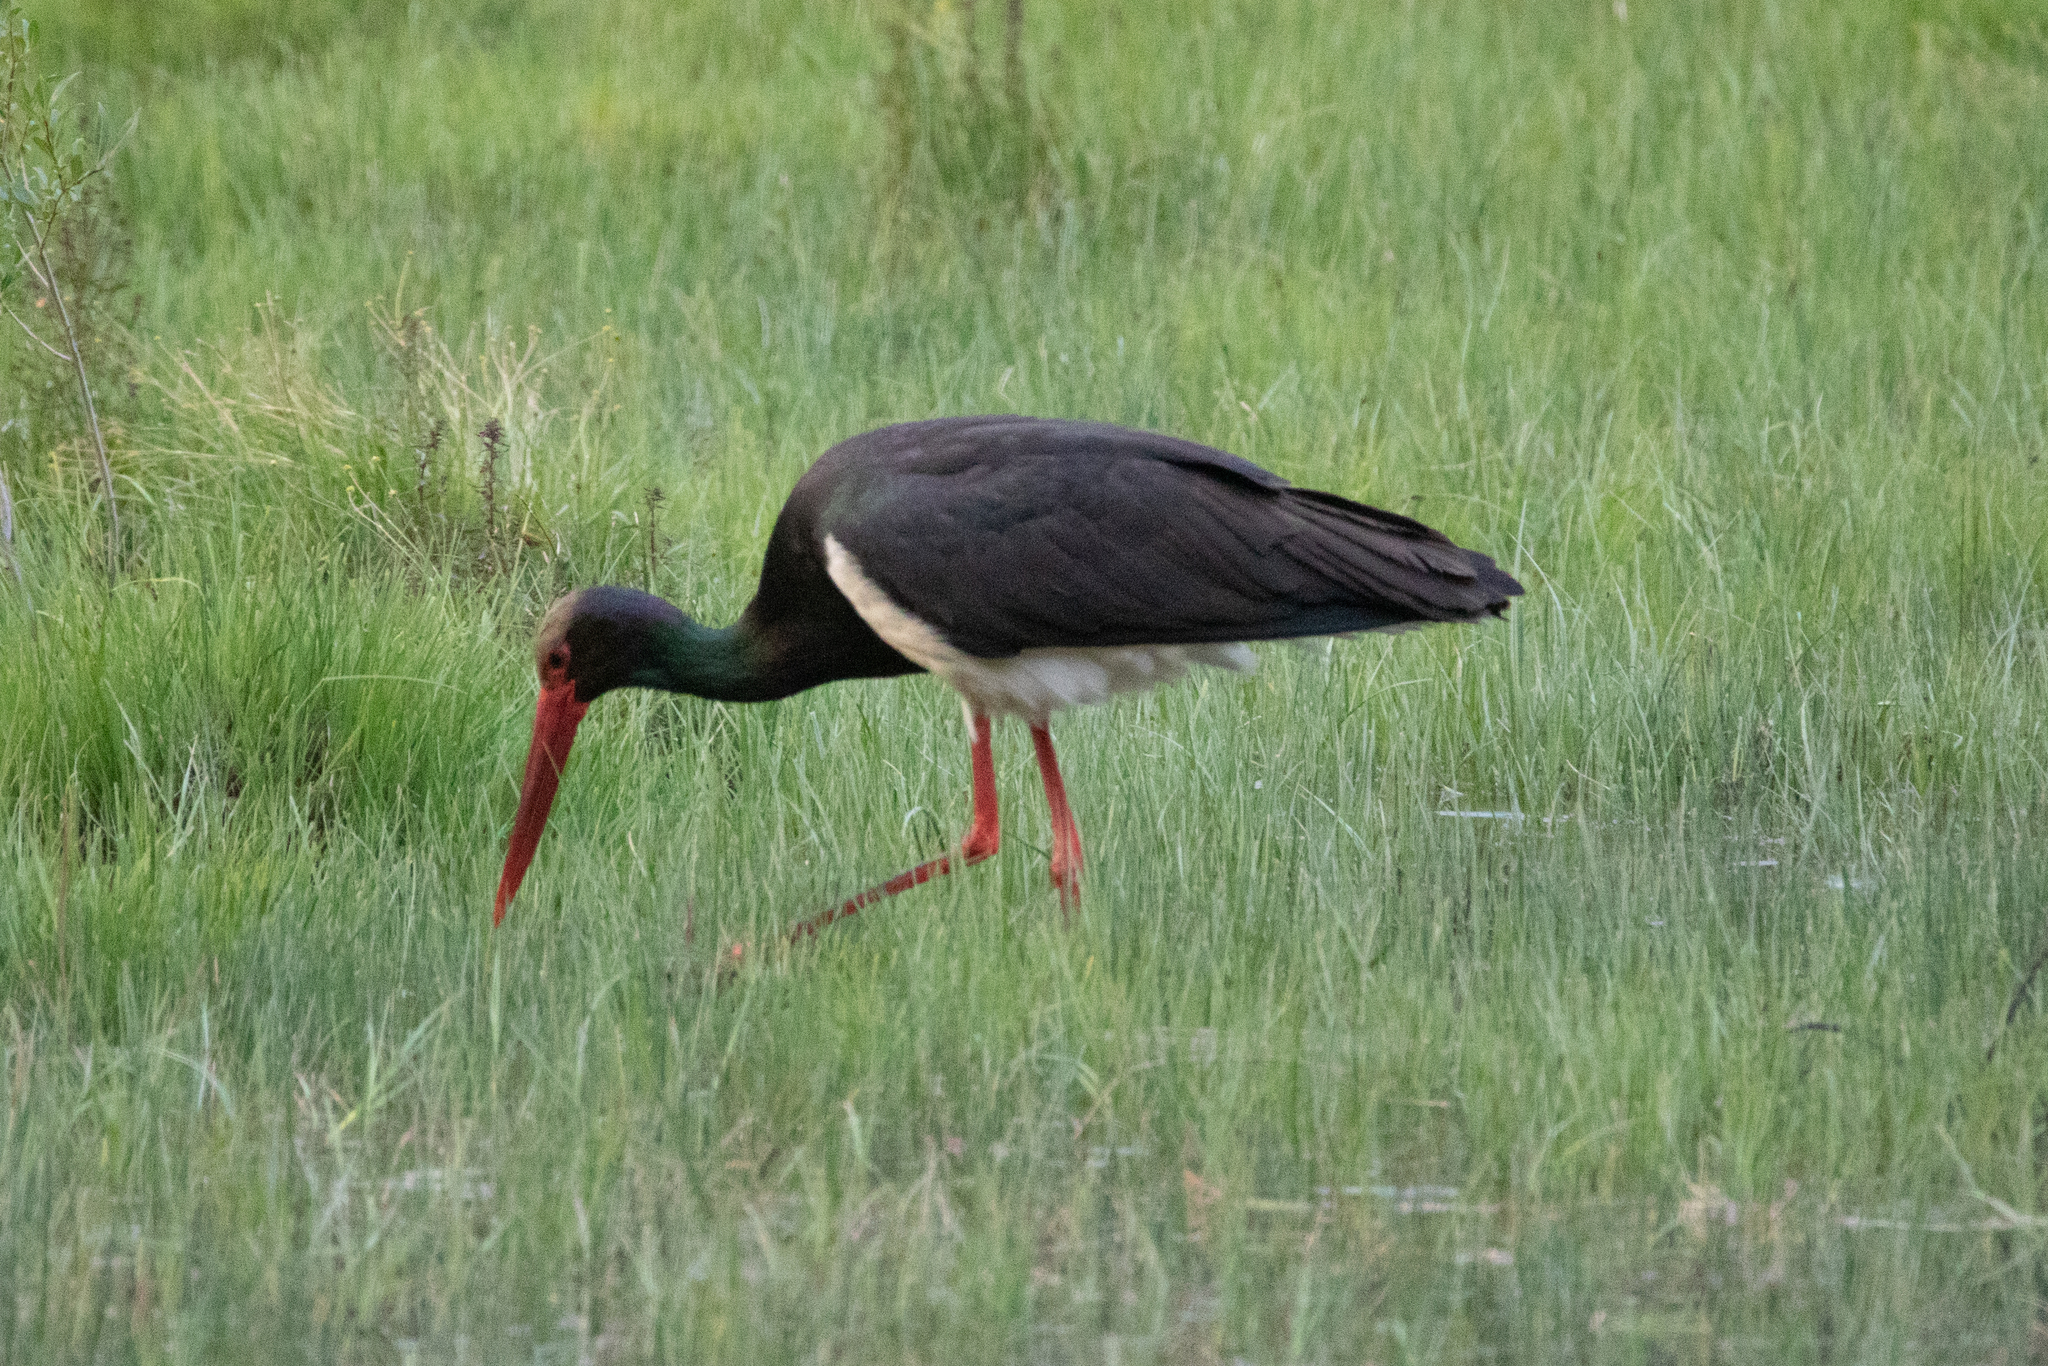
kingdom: Animalia
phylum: Chordata
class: Aves
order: Ciconiiformes
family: Ciconiidae
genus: Ciconia
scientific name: Ciconia nigra
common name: Black stork
